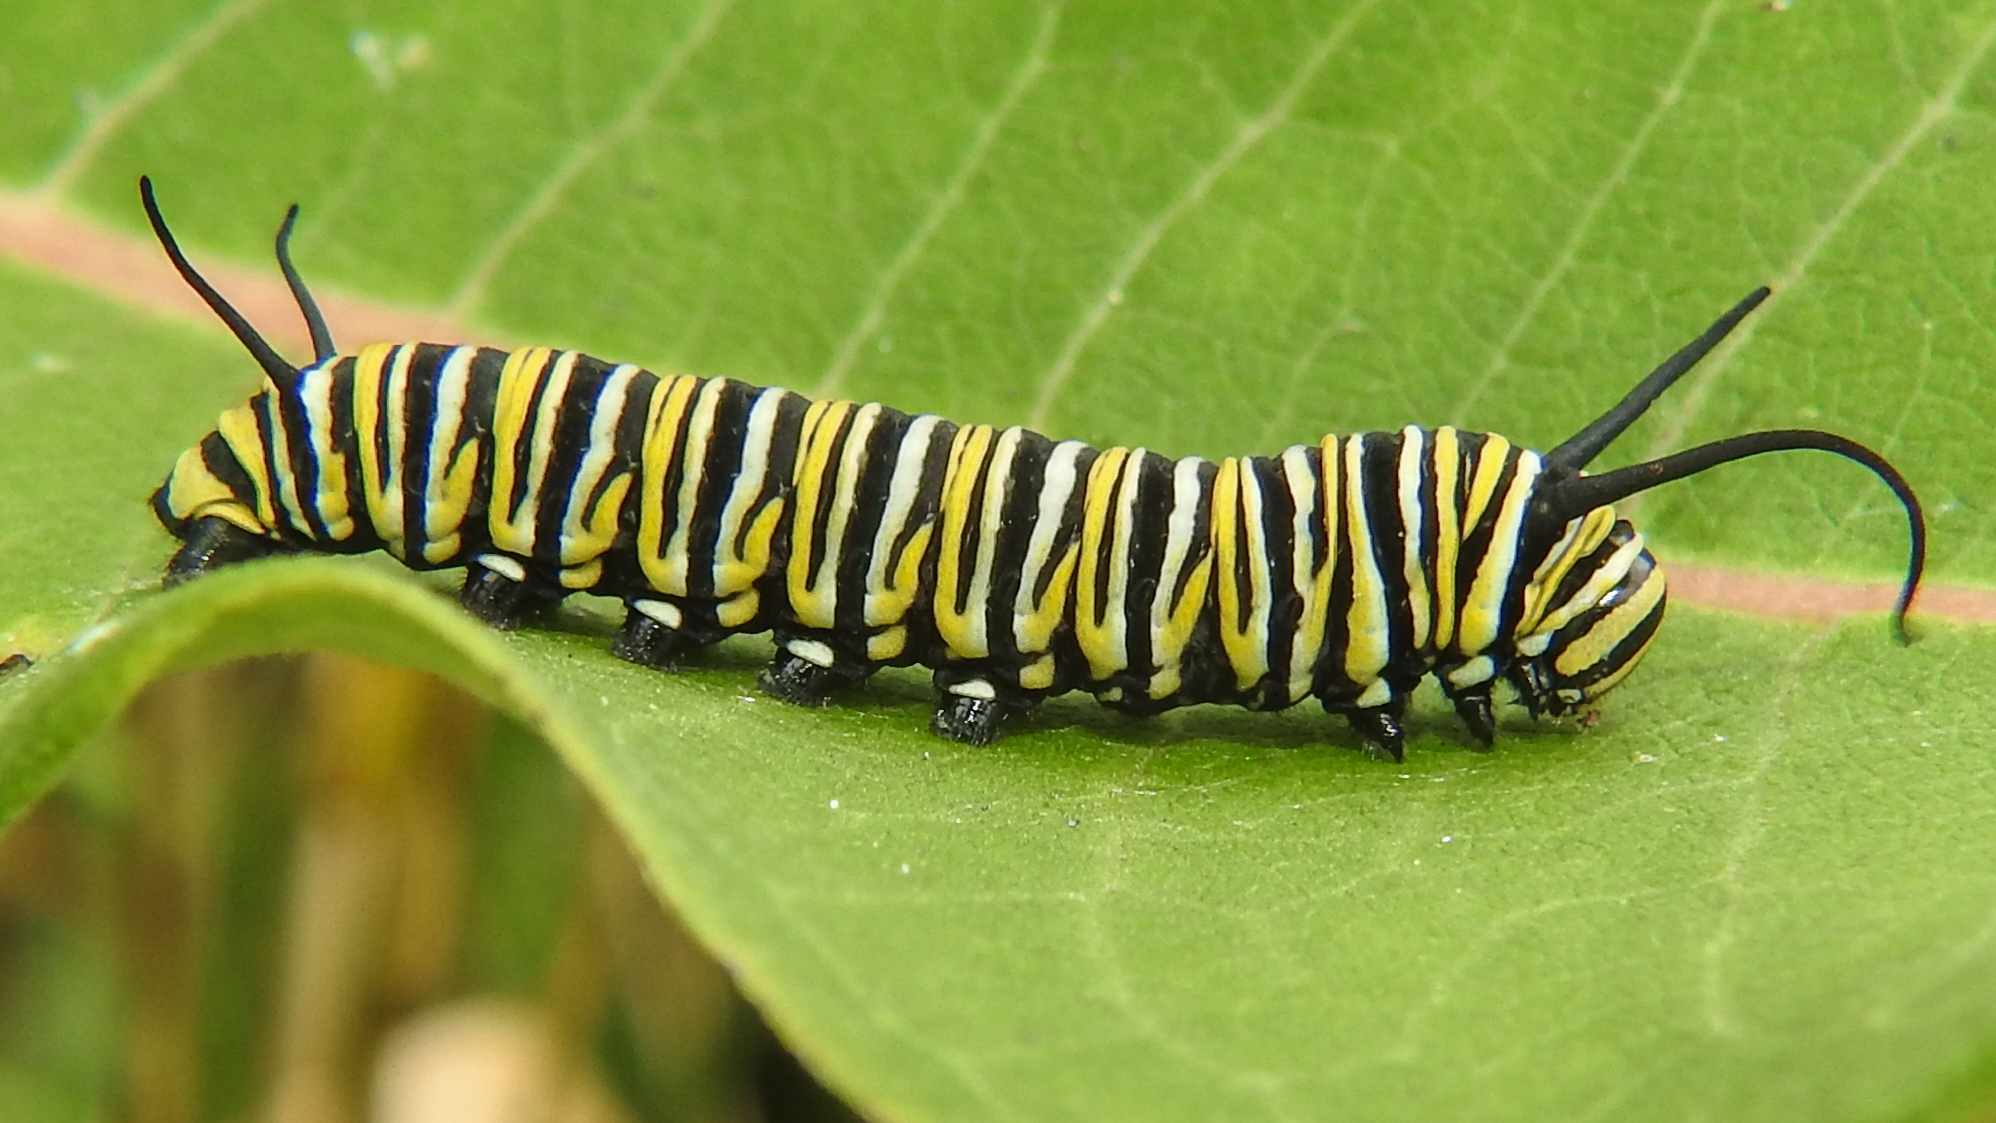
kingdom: Animalia
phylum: Arthropoda
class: Insecta
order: Lepidoptera
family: Nymphalidae
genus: Danaus
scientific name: Danaus plexippus
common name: Monarch
